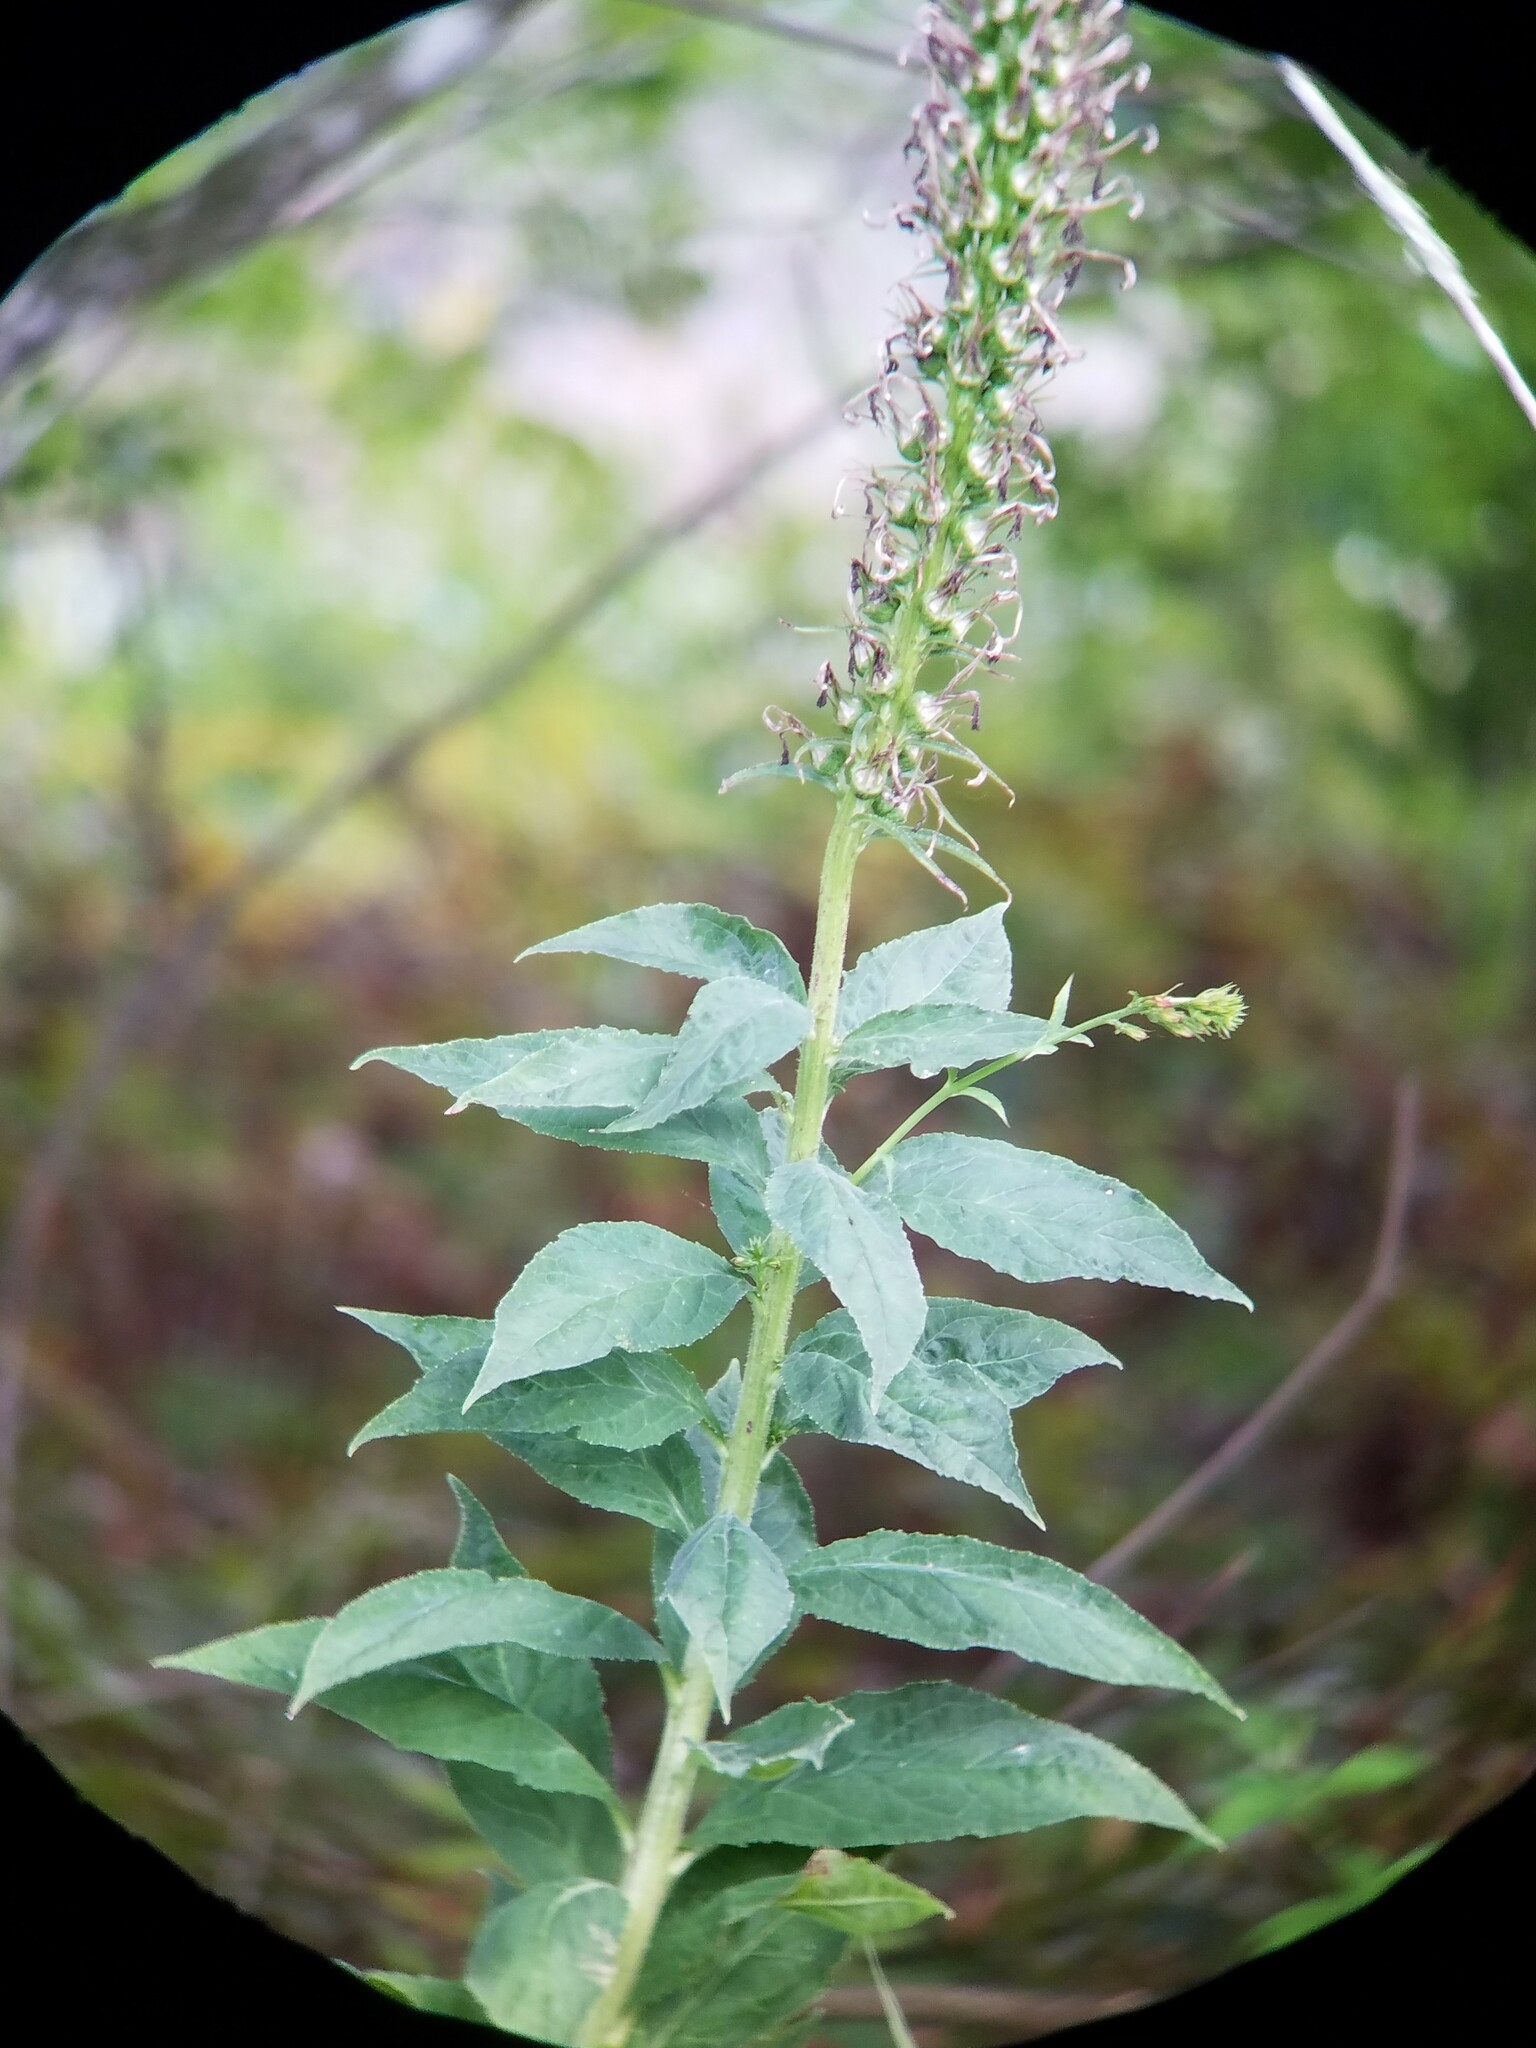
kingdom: Plantae
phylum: Tracheophyta
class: Magnoliopsida
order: Asterales
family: Campanulaceae
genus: Lobelia
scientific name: Lobelia cardinalis
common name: Cardinal flower
